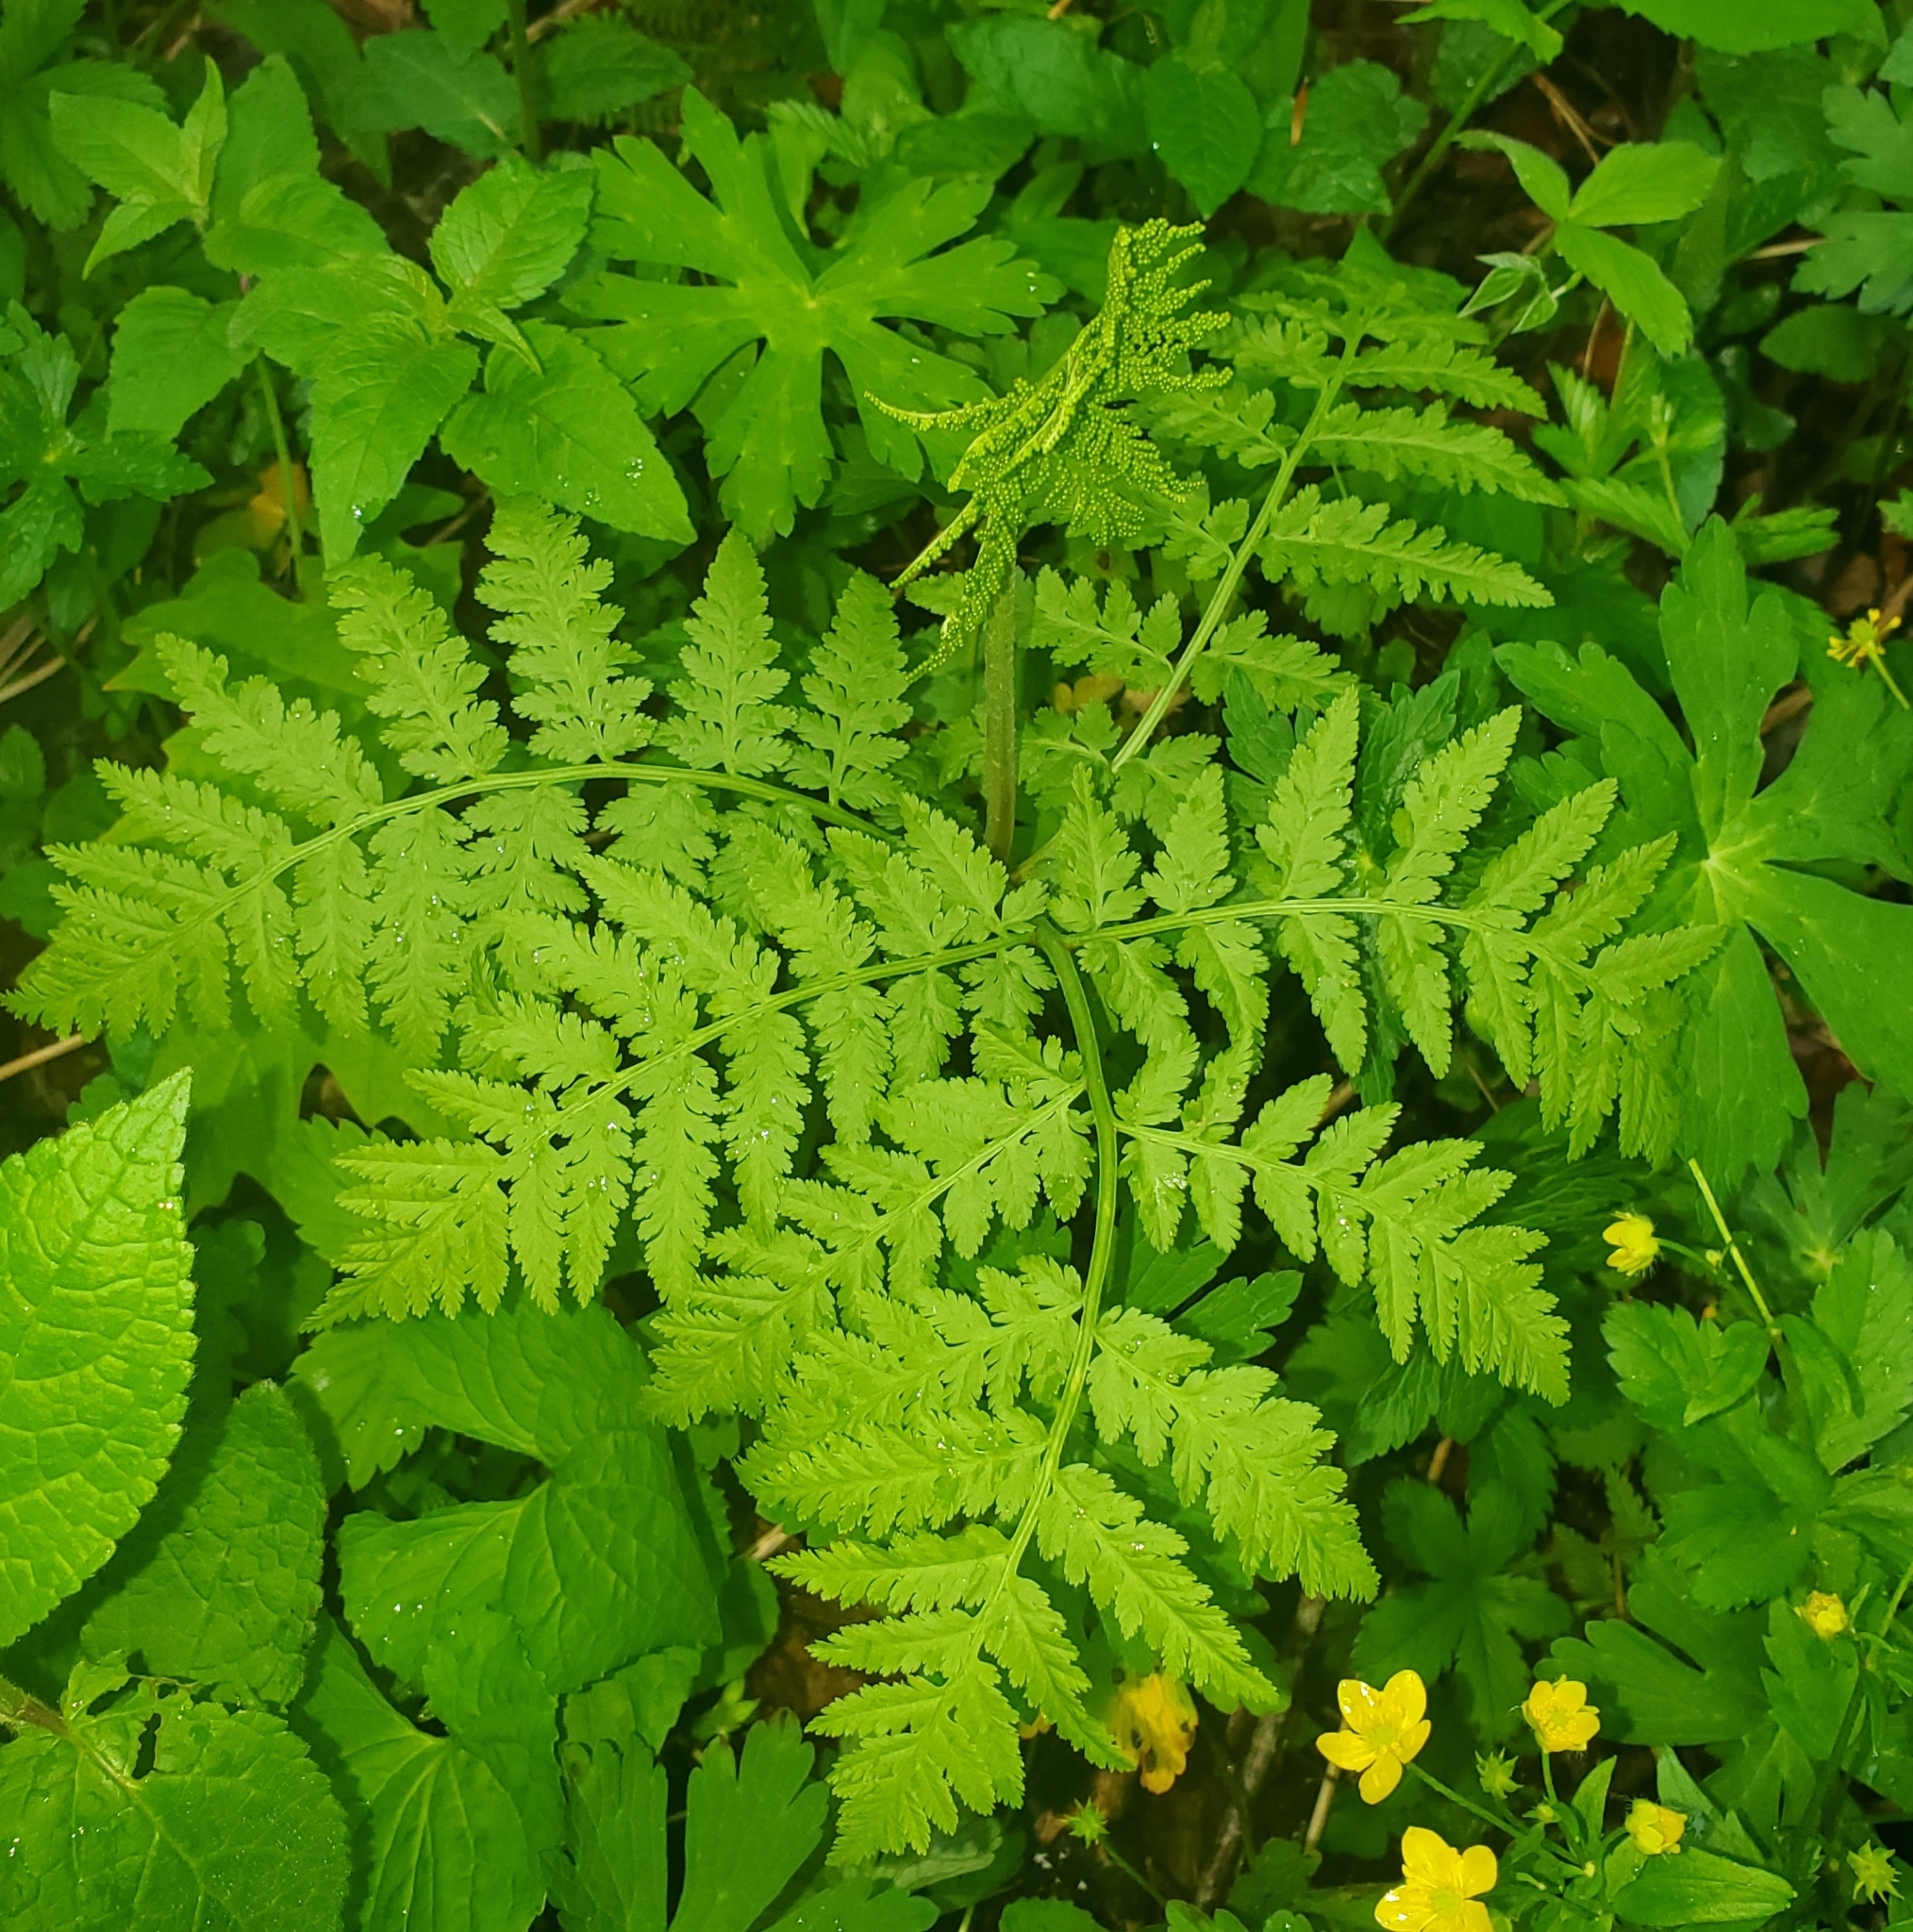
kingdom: Plantae
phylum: Tracheophyta
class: Polypodiopsida
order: Ophioglossales
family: Ophioglossaceae
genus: Botrypus
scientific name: Botrypus virginianus
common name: Common grapefern
